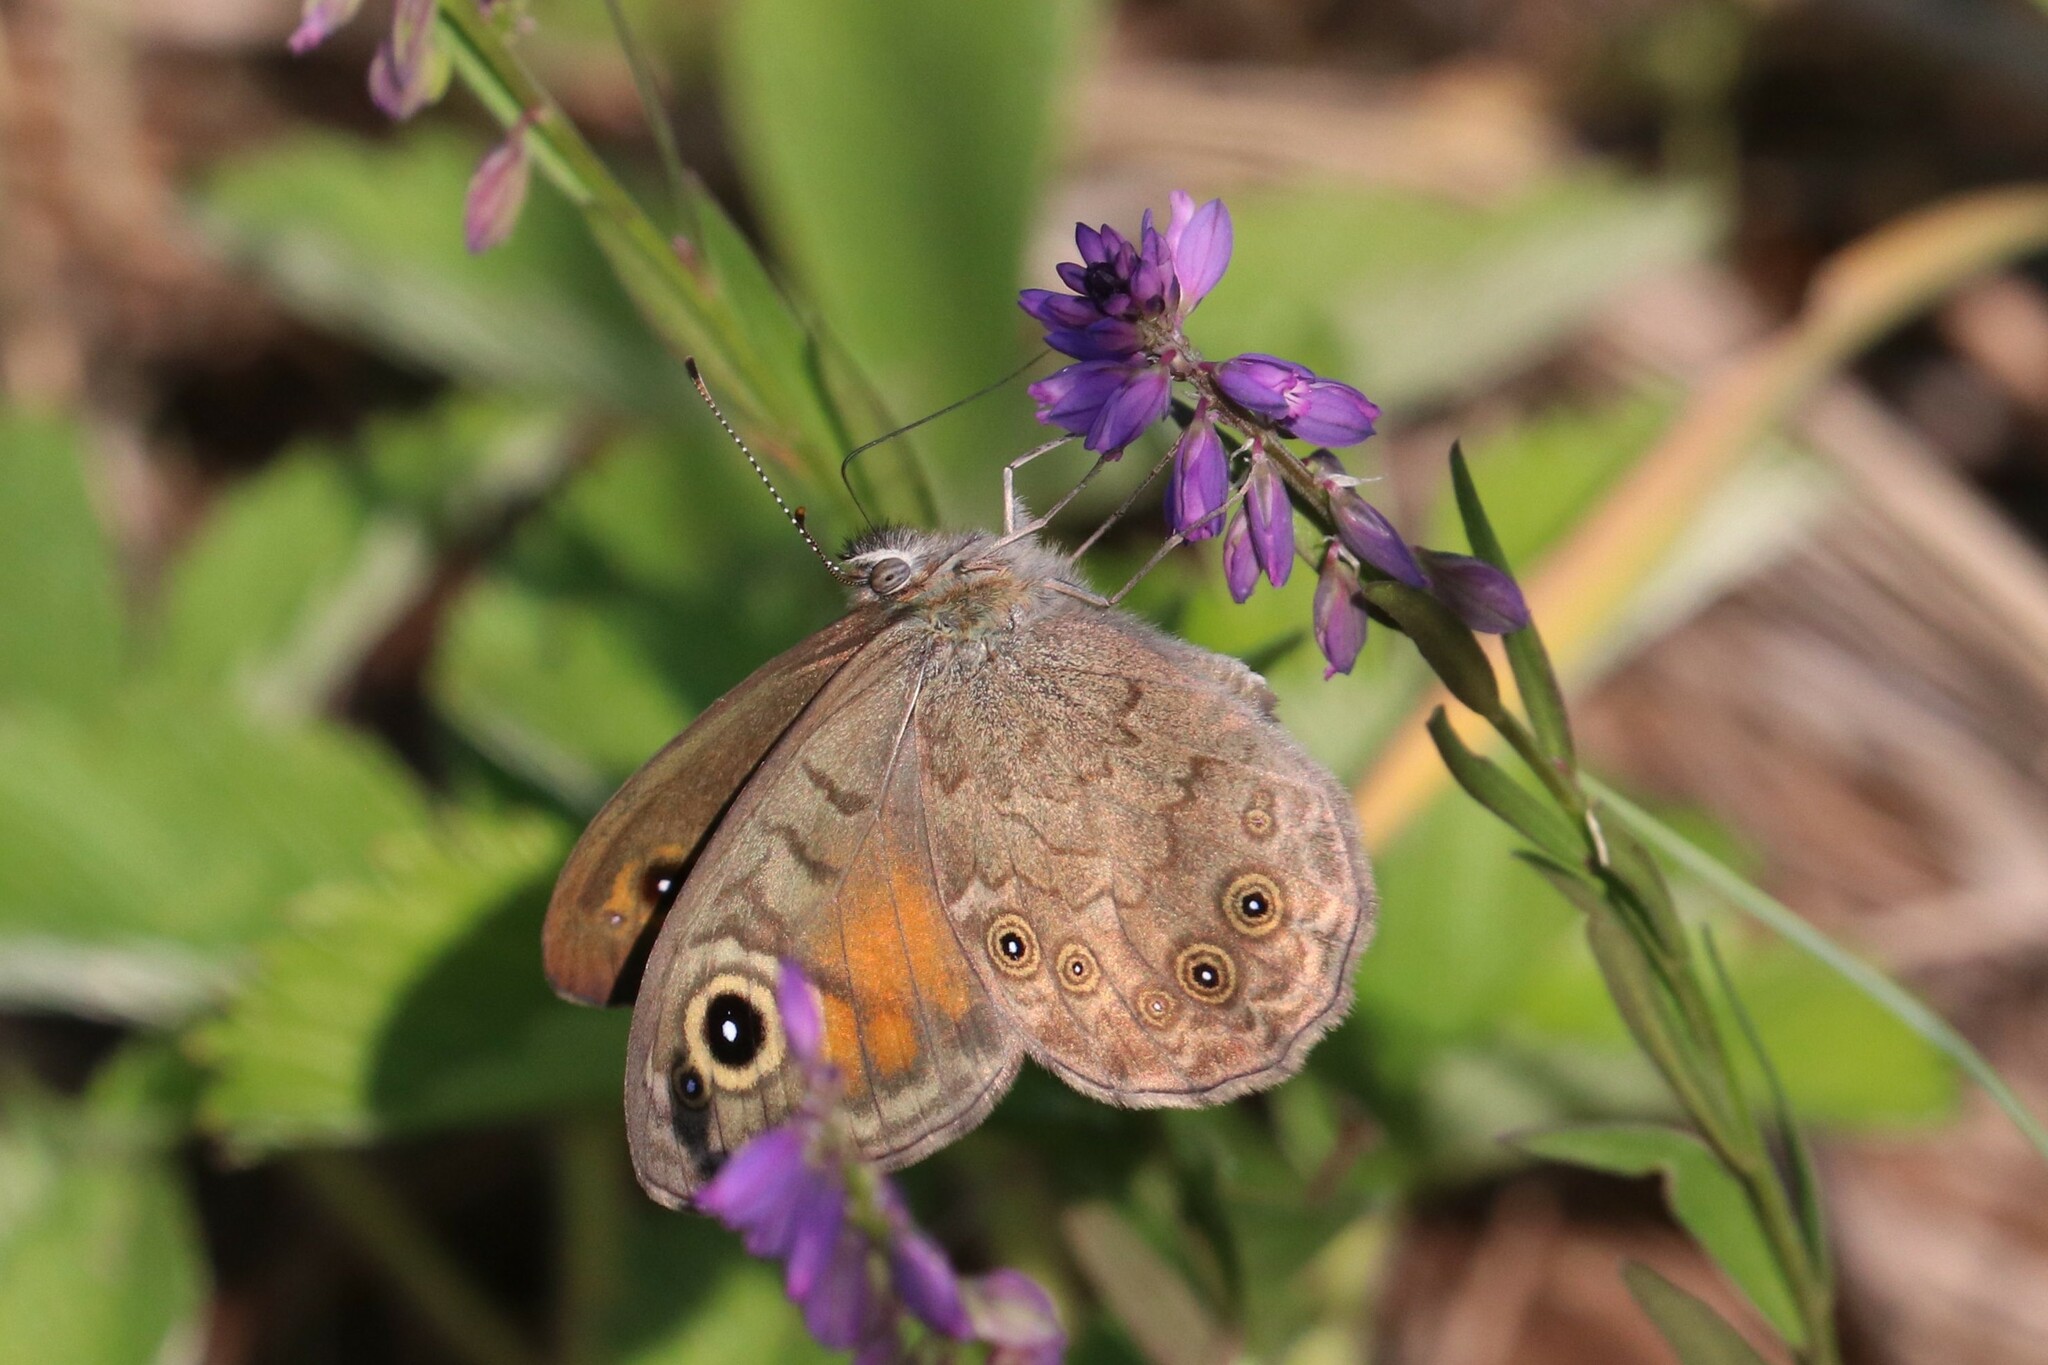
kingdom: Animalia
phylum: Arthropoda
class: Insecta
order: Lepidoptera
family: Nymphalidae
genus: Pararge
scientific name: Pararge Lasiommata maera
